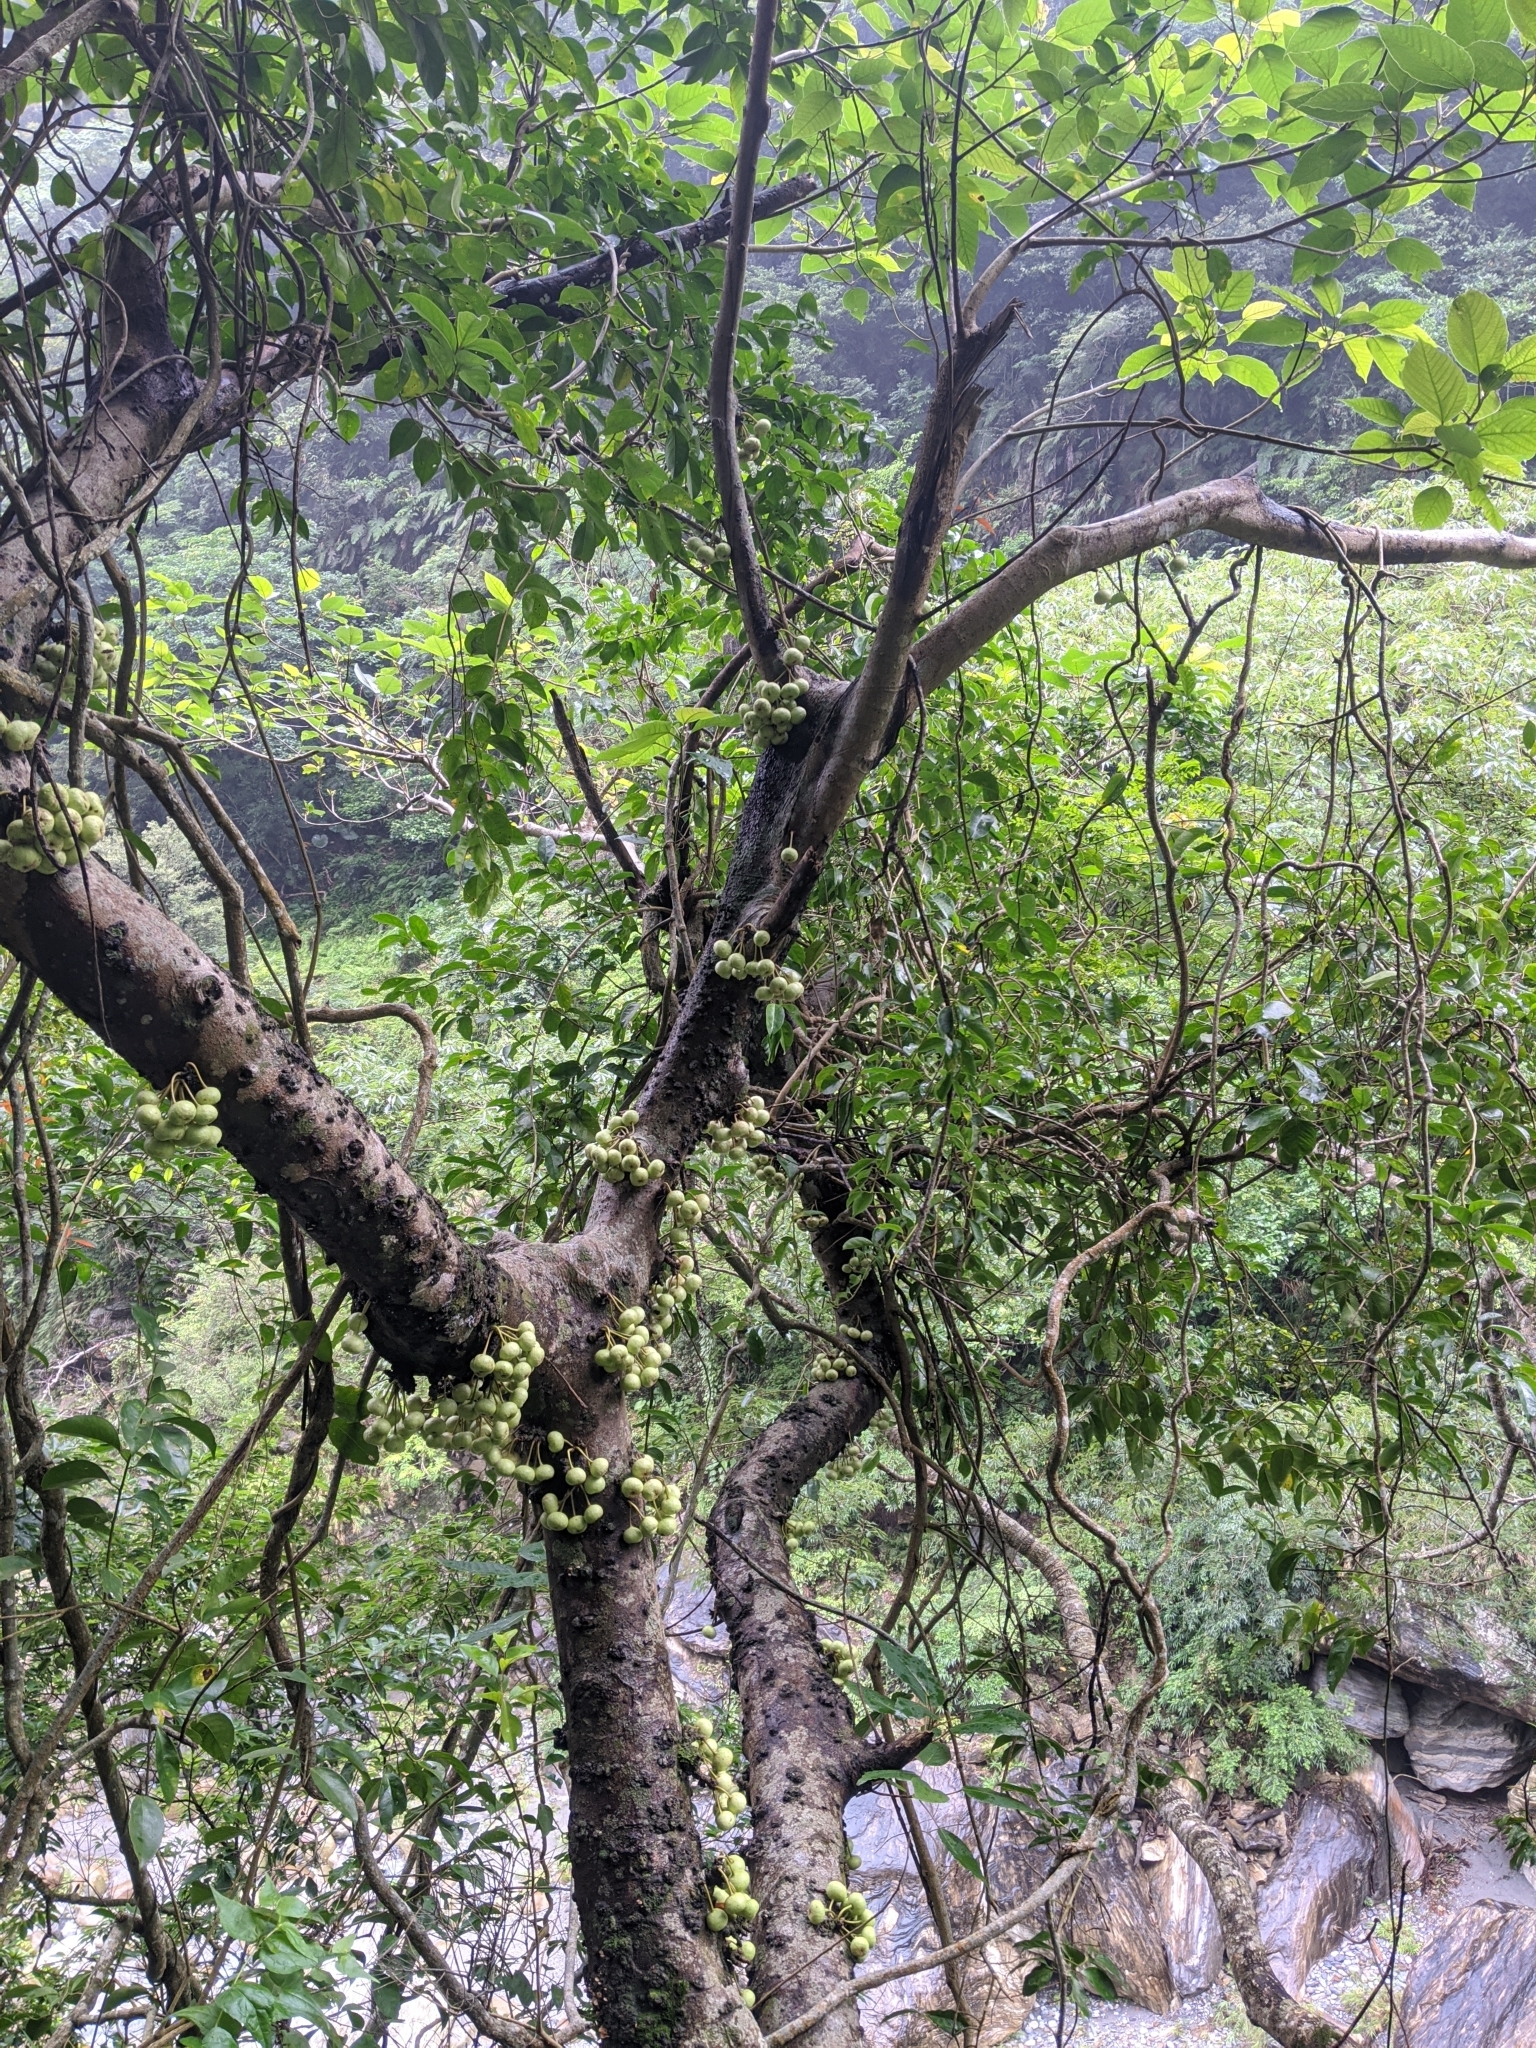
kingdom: Plantae
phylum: Tracheophyta
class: Magnoliopsida
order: Rosales
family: Moraceae
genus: Ficus
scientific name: Ficus variegata
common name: Variegated fig
